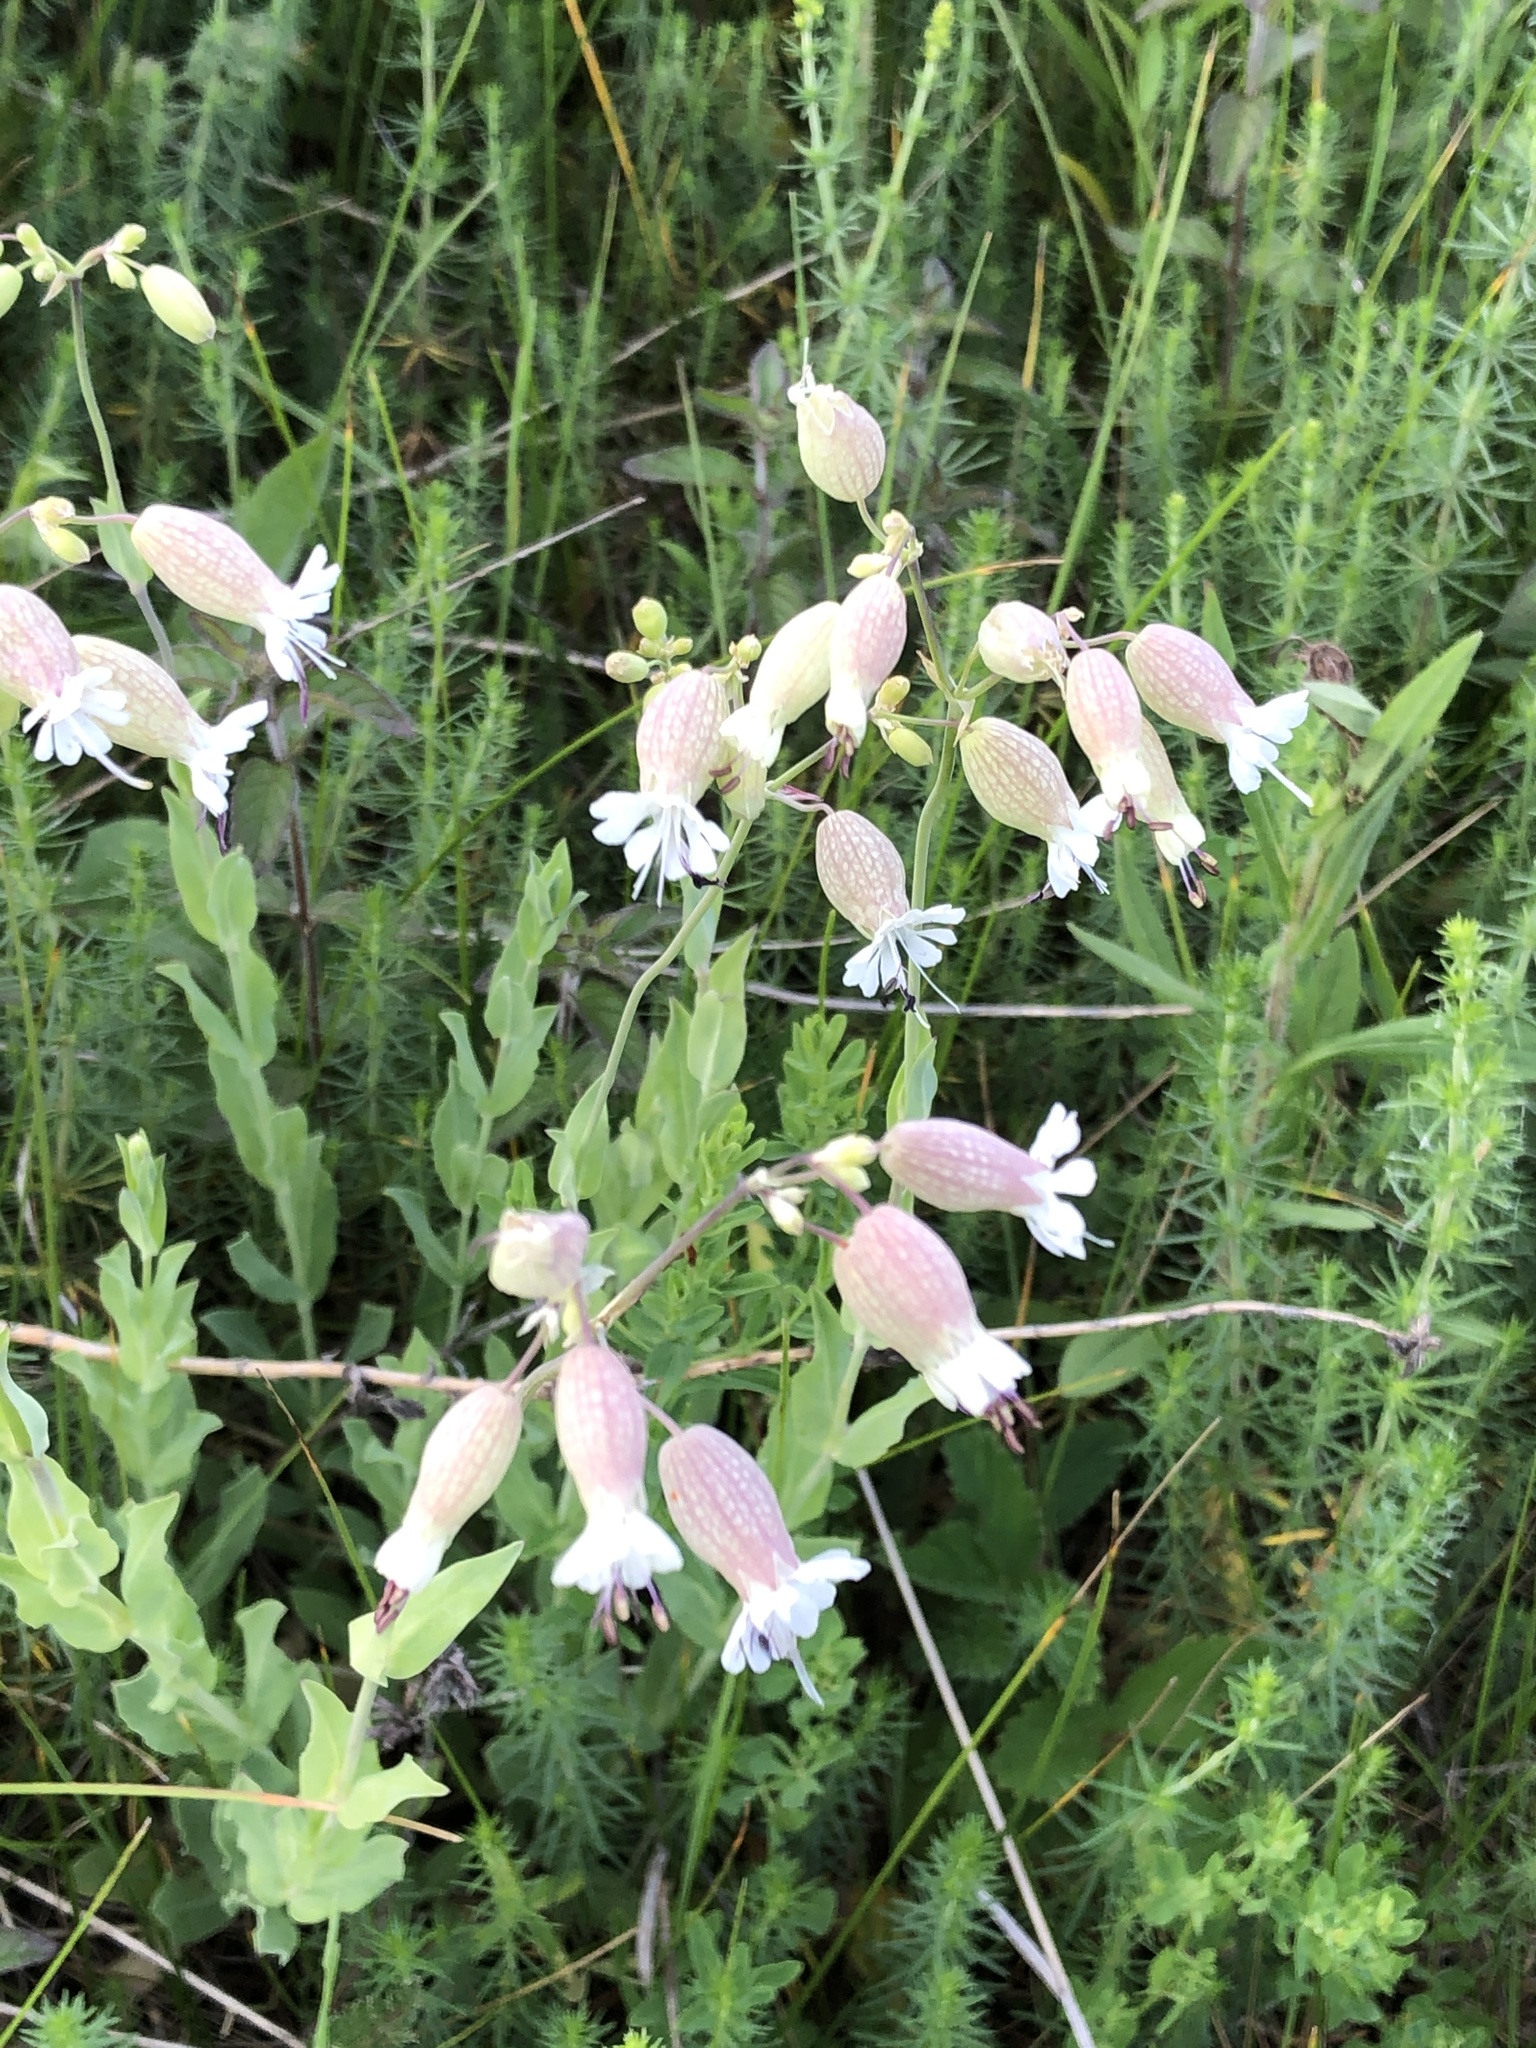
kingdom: Plantae
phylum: Tracheophyta
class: Magnoliopsida
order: Caryophyllales
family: Caryophyllaceae
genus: Silene
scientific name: Silene vulgaris
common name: Bladder campion
